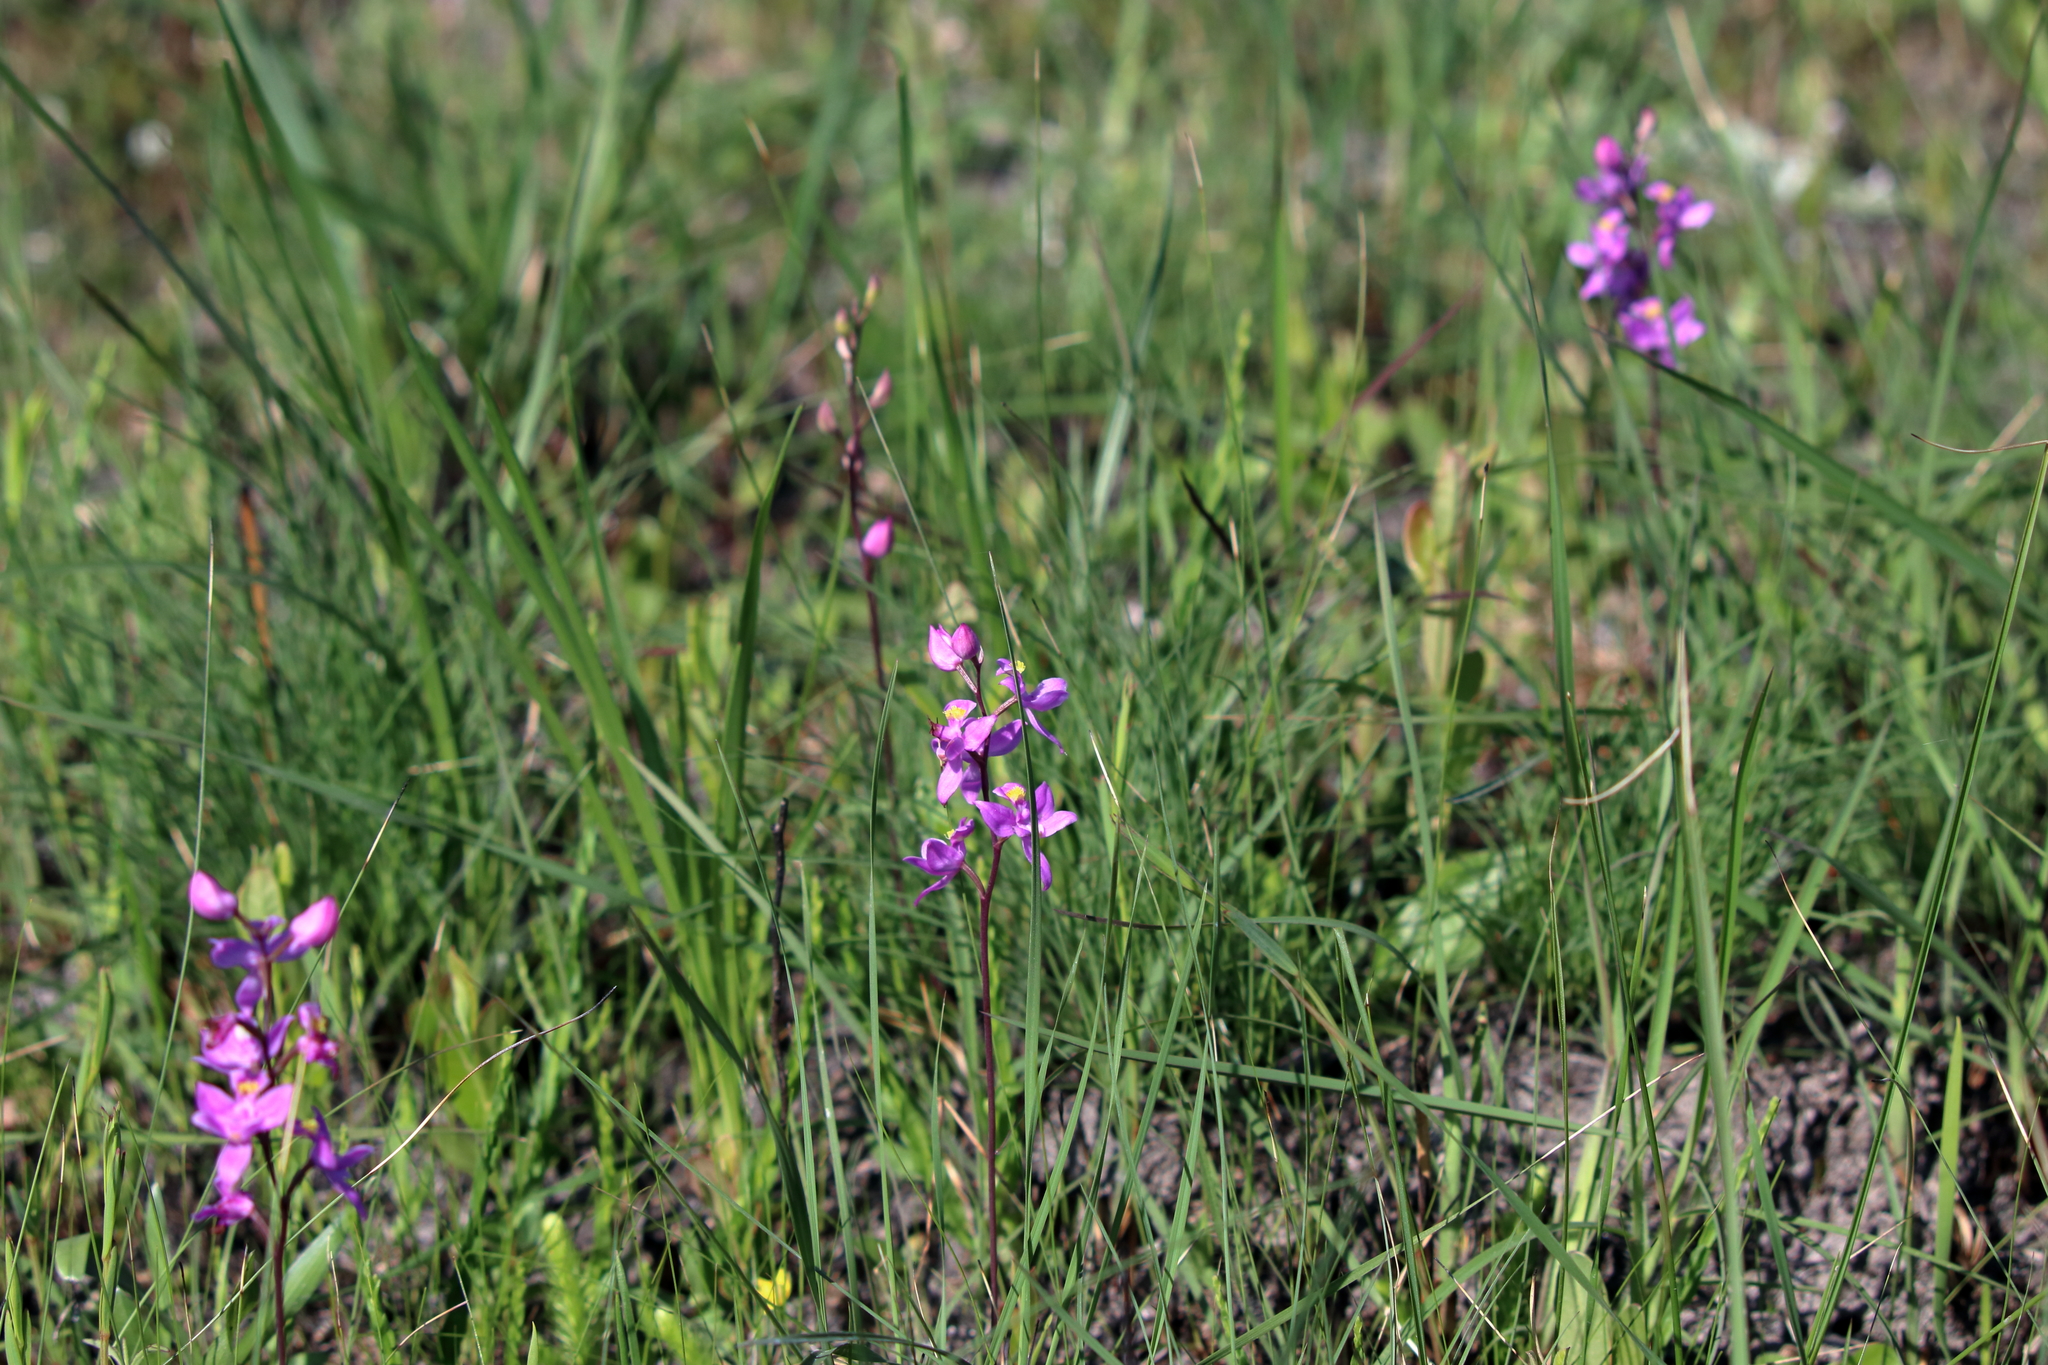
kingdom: Plantae
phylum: Tracheophyta
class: Liliopsida
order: Asparagales
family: Orchidaceae
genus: Calopogon
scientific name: Calopogon multiflorus
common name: Many-flowered grass-pink orchid
